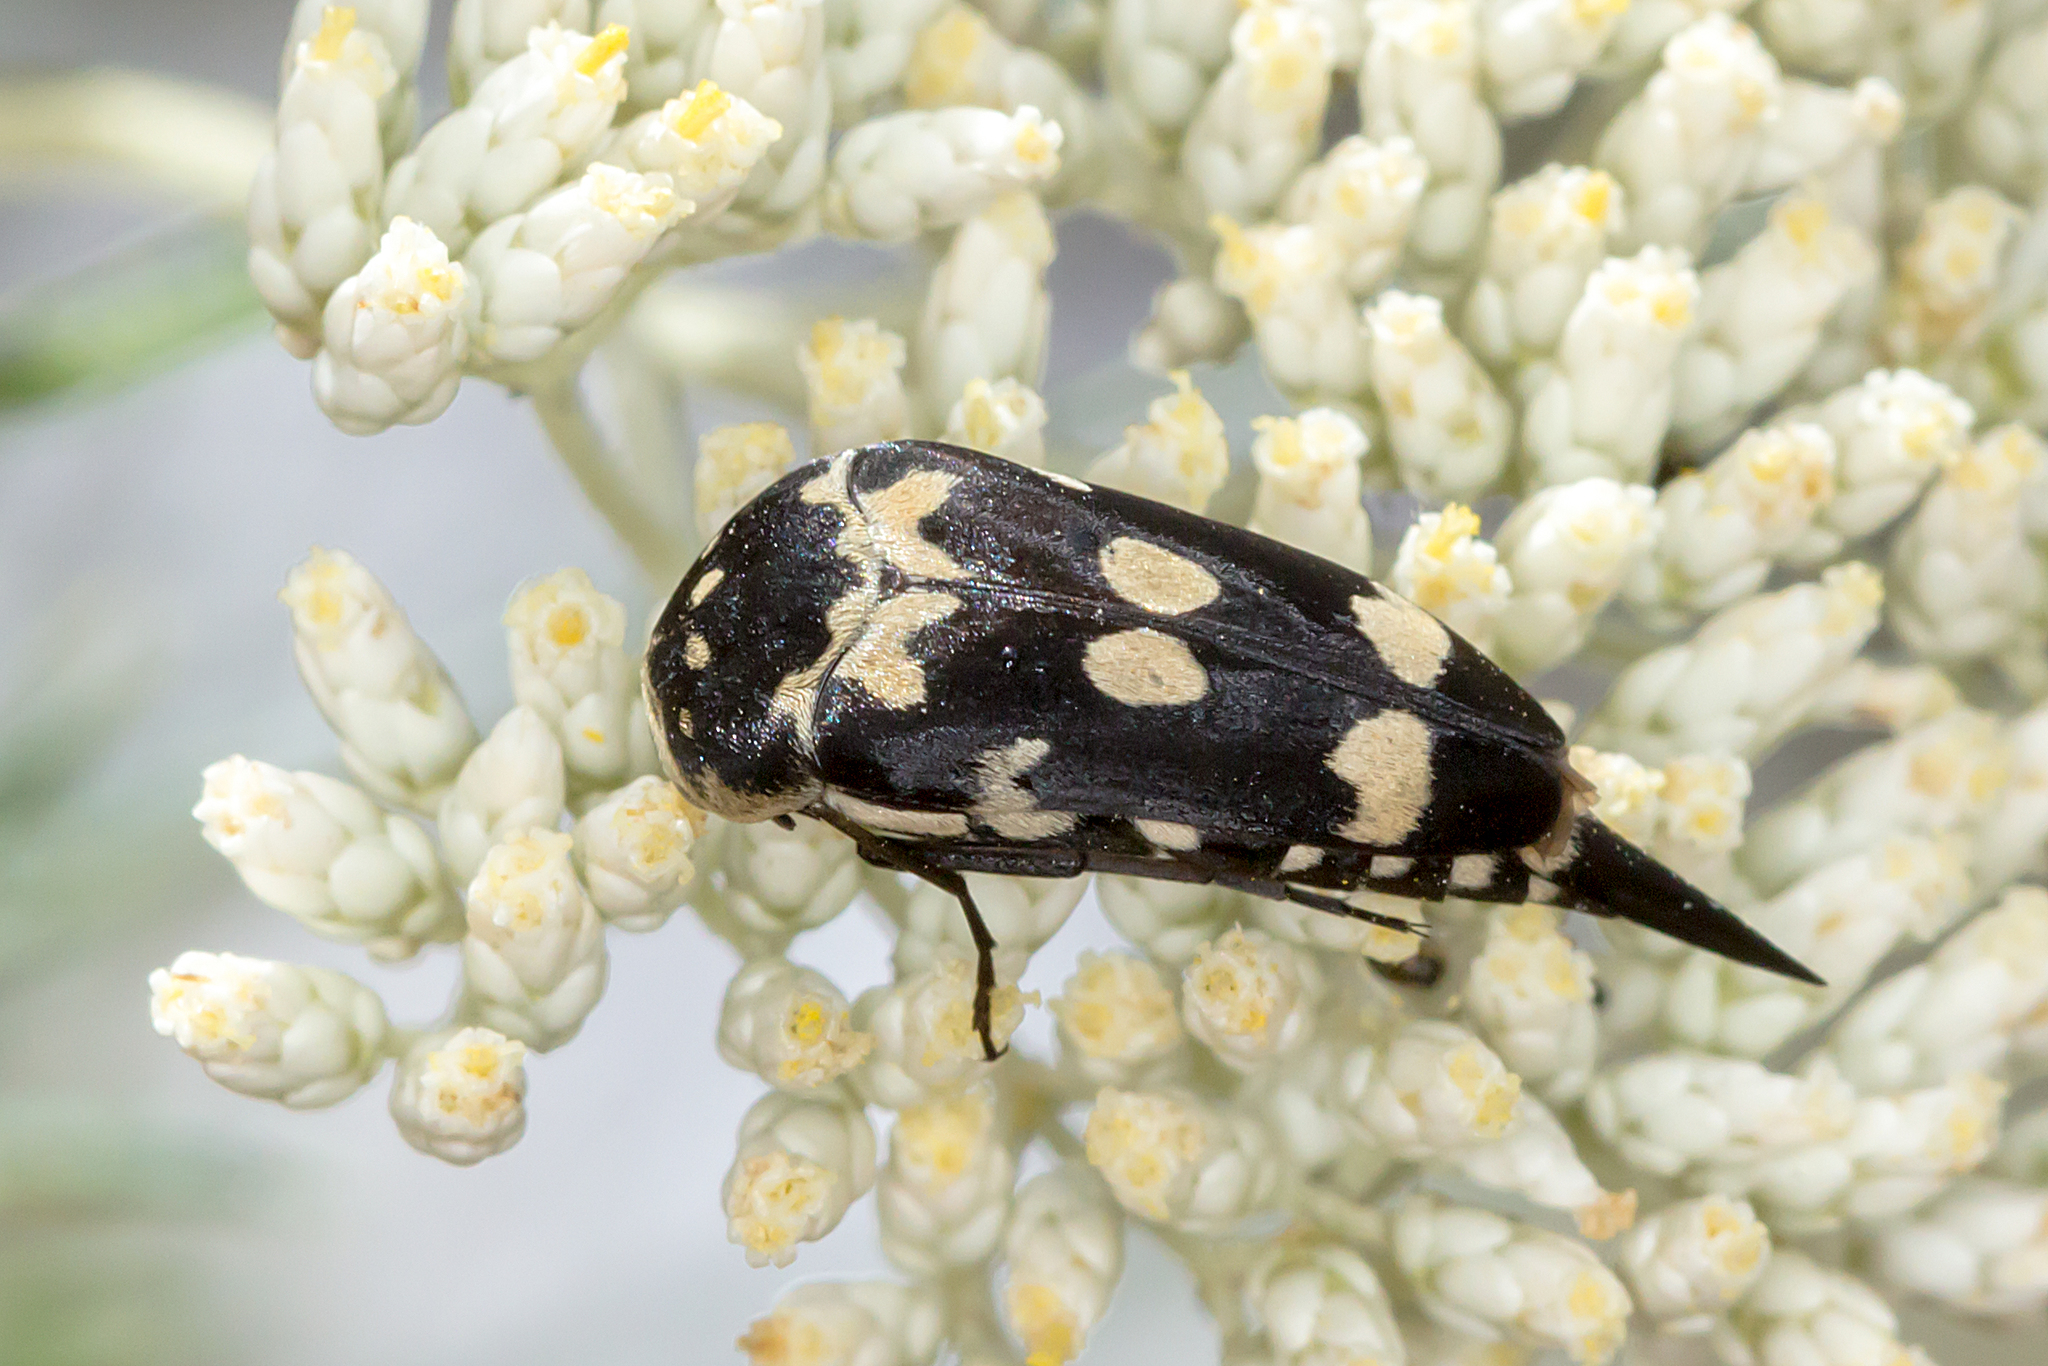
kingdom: Animalia
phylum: Arthropoda
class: Insecta
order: Coleoptera
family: Mordellidae
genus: Hoshihananomia
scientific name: Hoshihananomia
